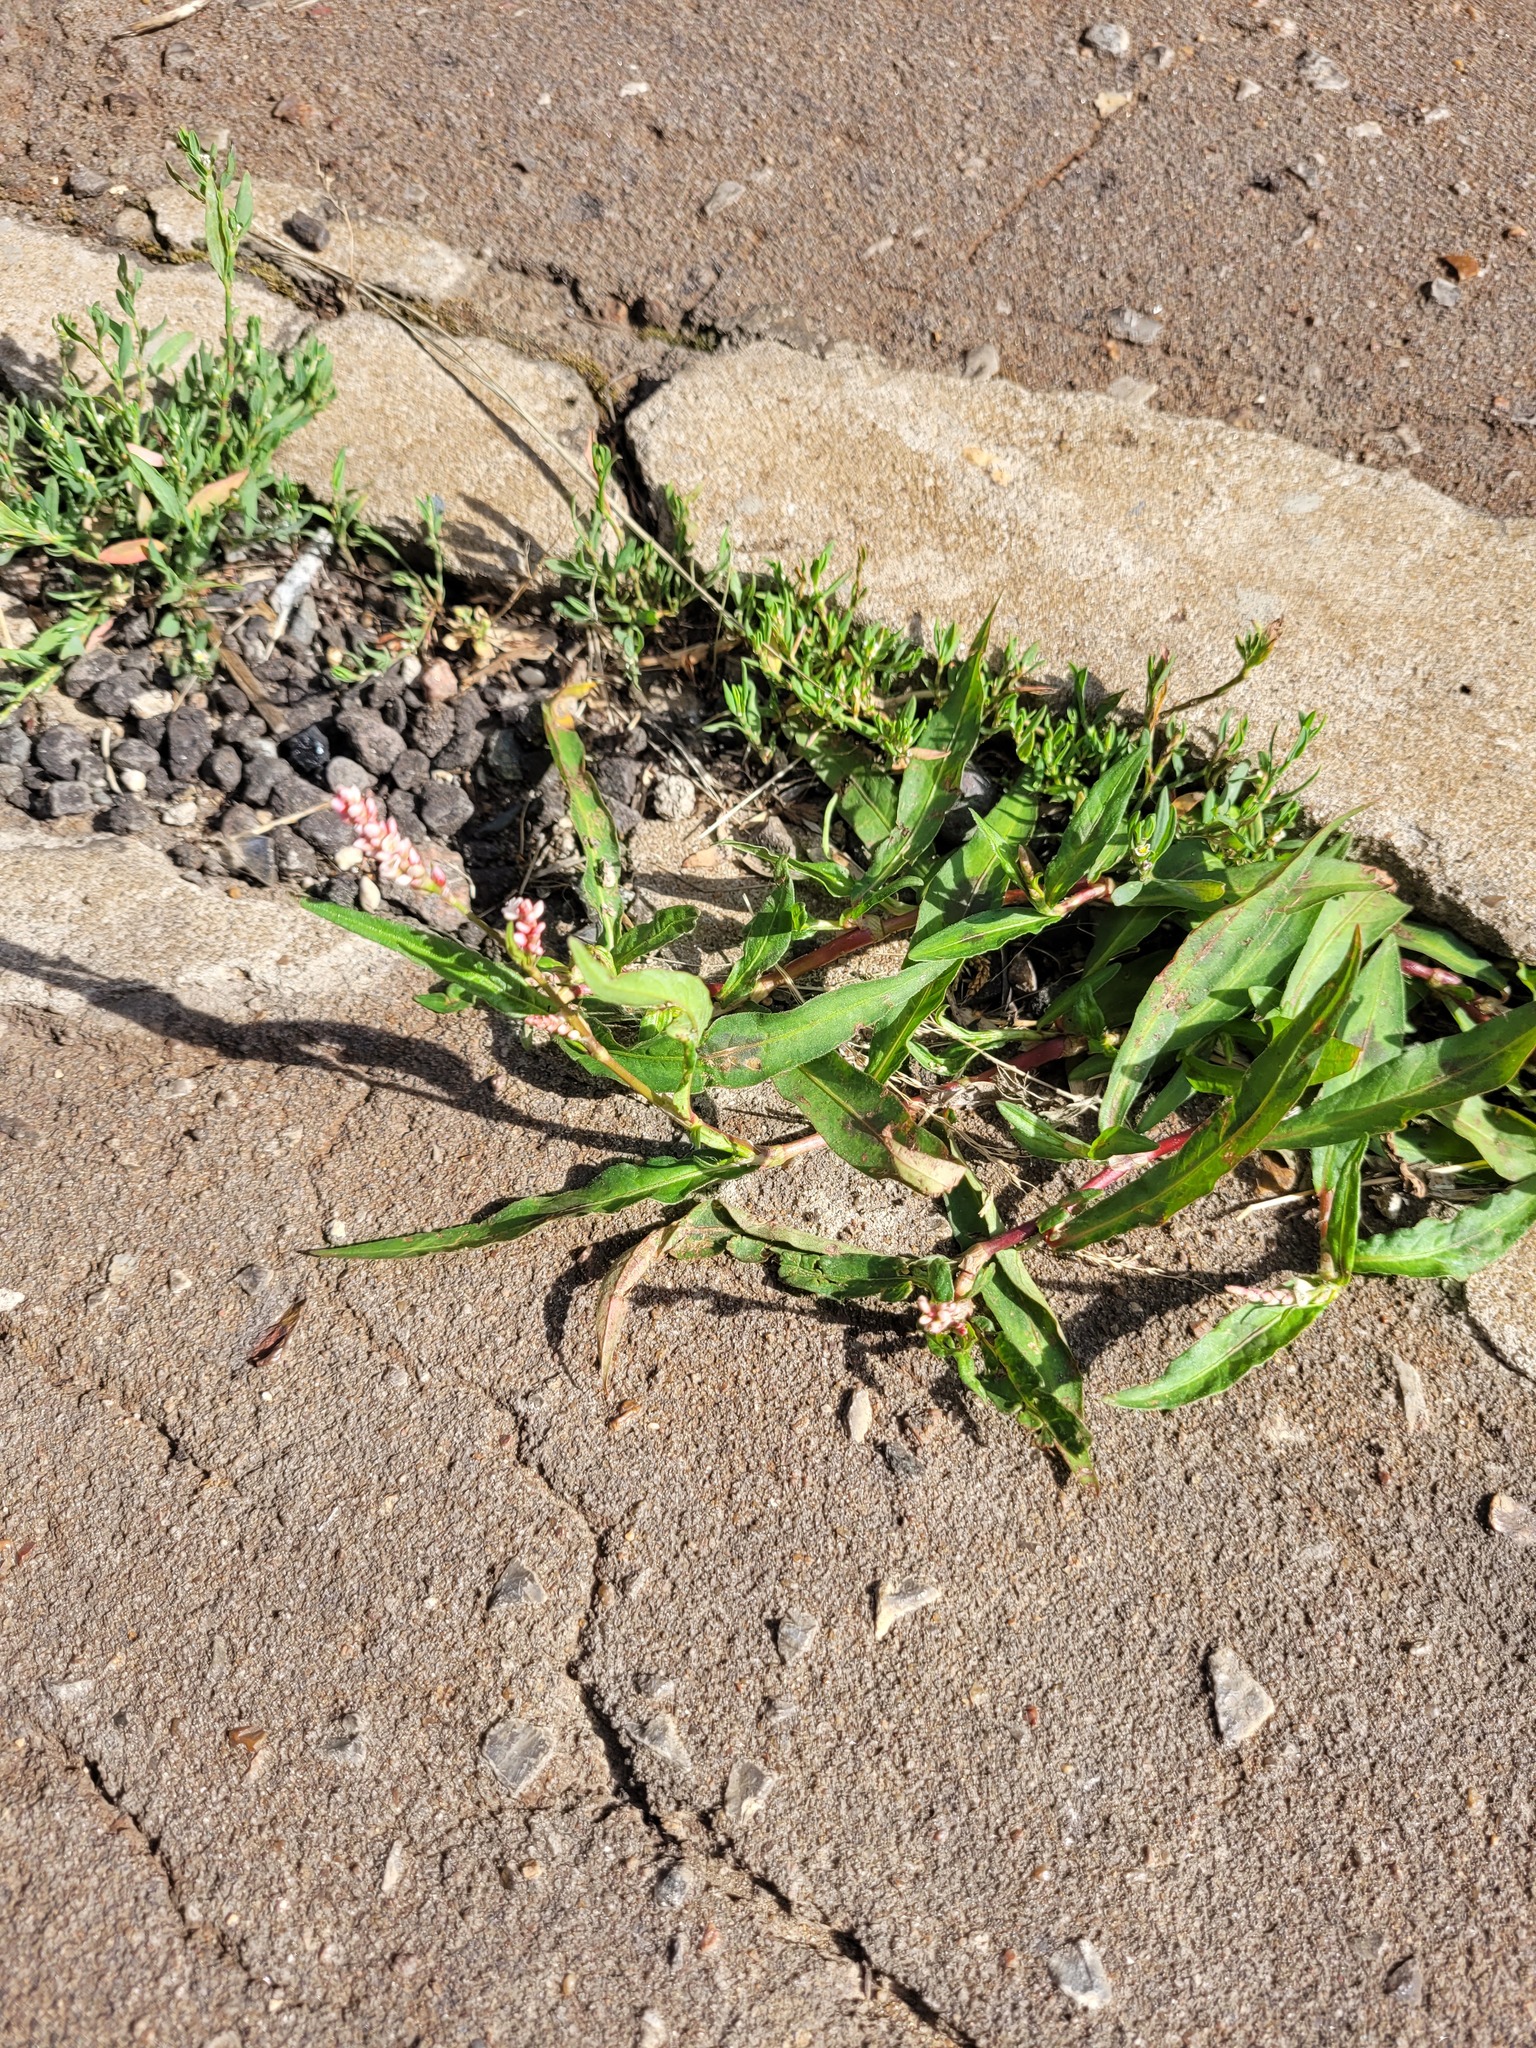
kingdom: Plantae
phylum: Tracheophyta
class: Magnoliopsida
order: Caryophyllales
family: Polygonaceae
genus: Persicaria
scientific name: Persicaria maculosa
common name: Redshank
